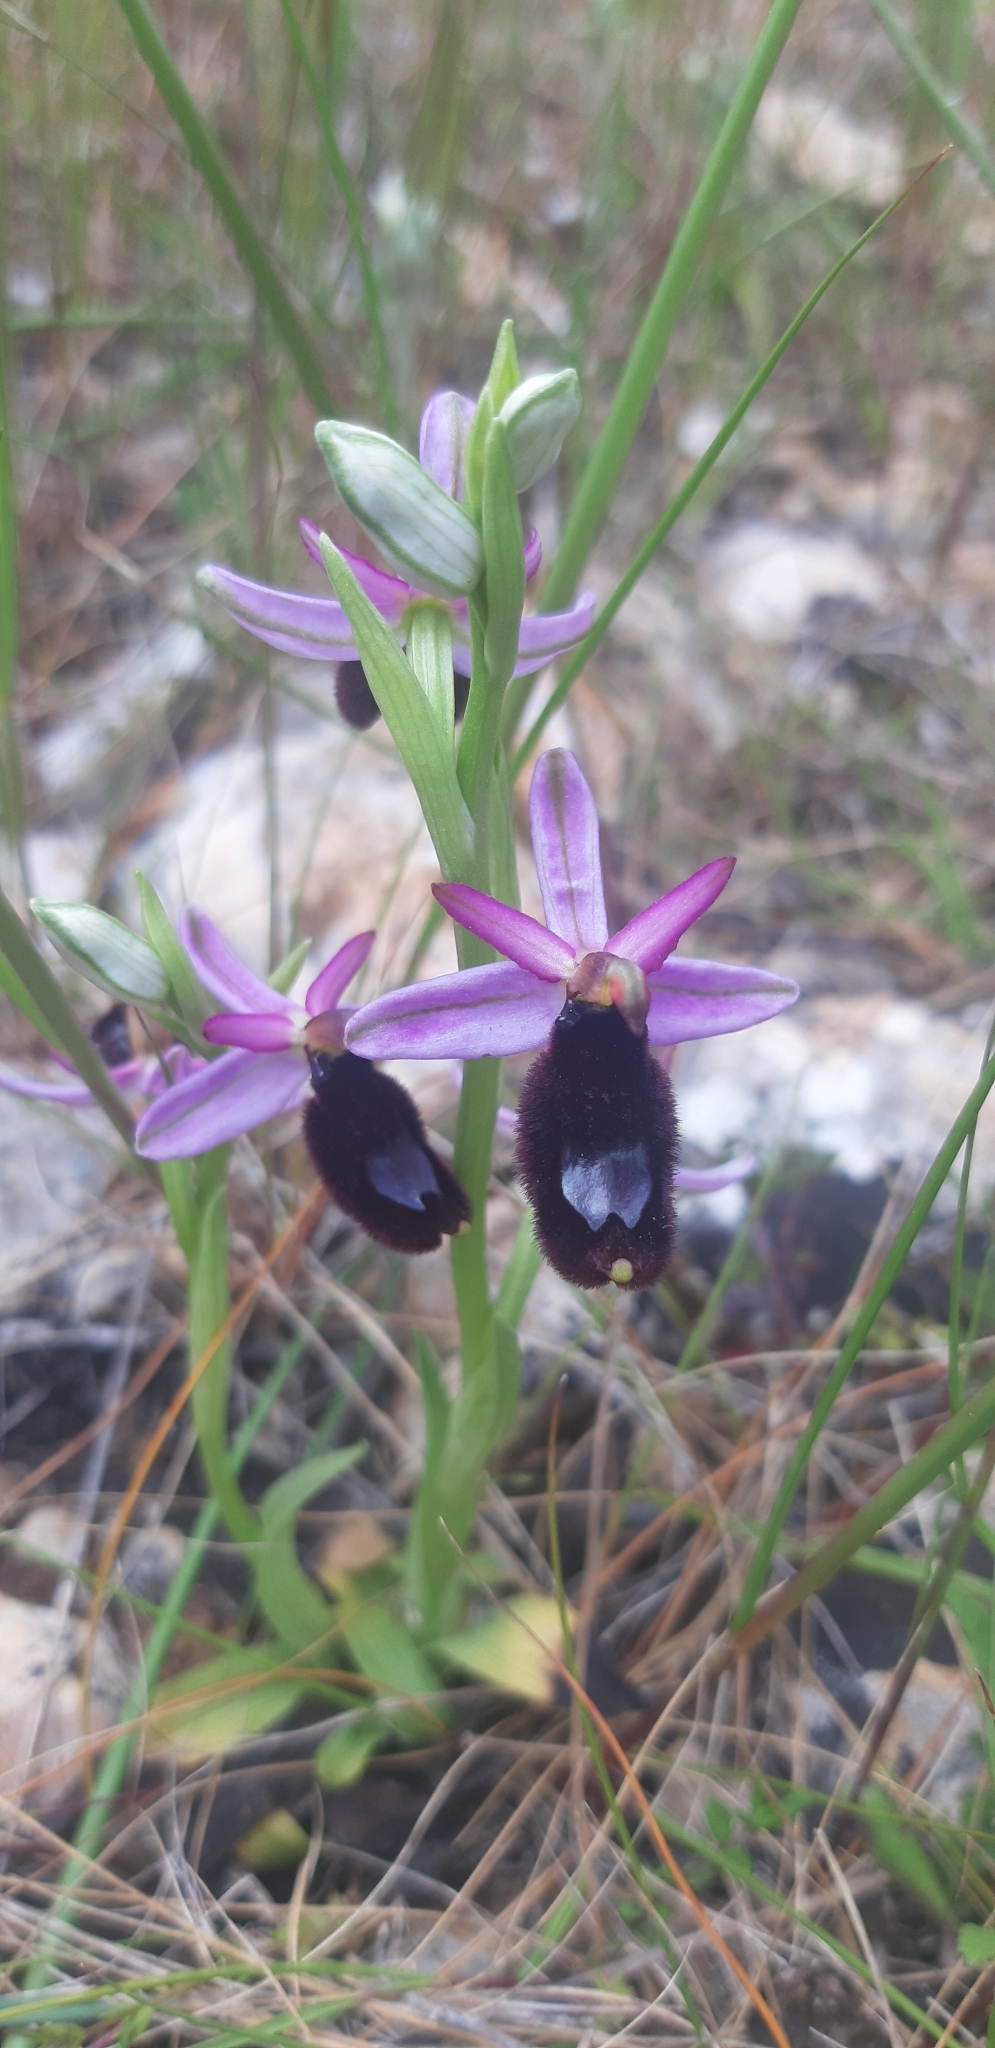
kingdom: Plantae
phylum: Tracheophyta
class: Liliopsida
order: Asparagales
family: Orchidaceae
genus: Ophrys
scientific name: Ophrys bertolonii
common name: Bertoloni's bee orchid
